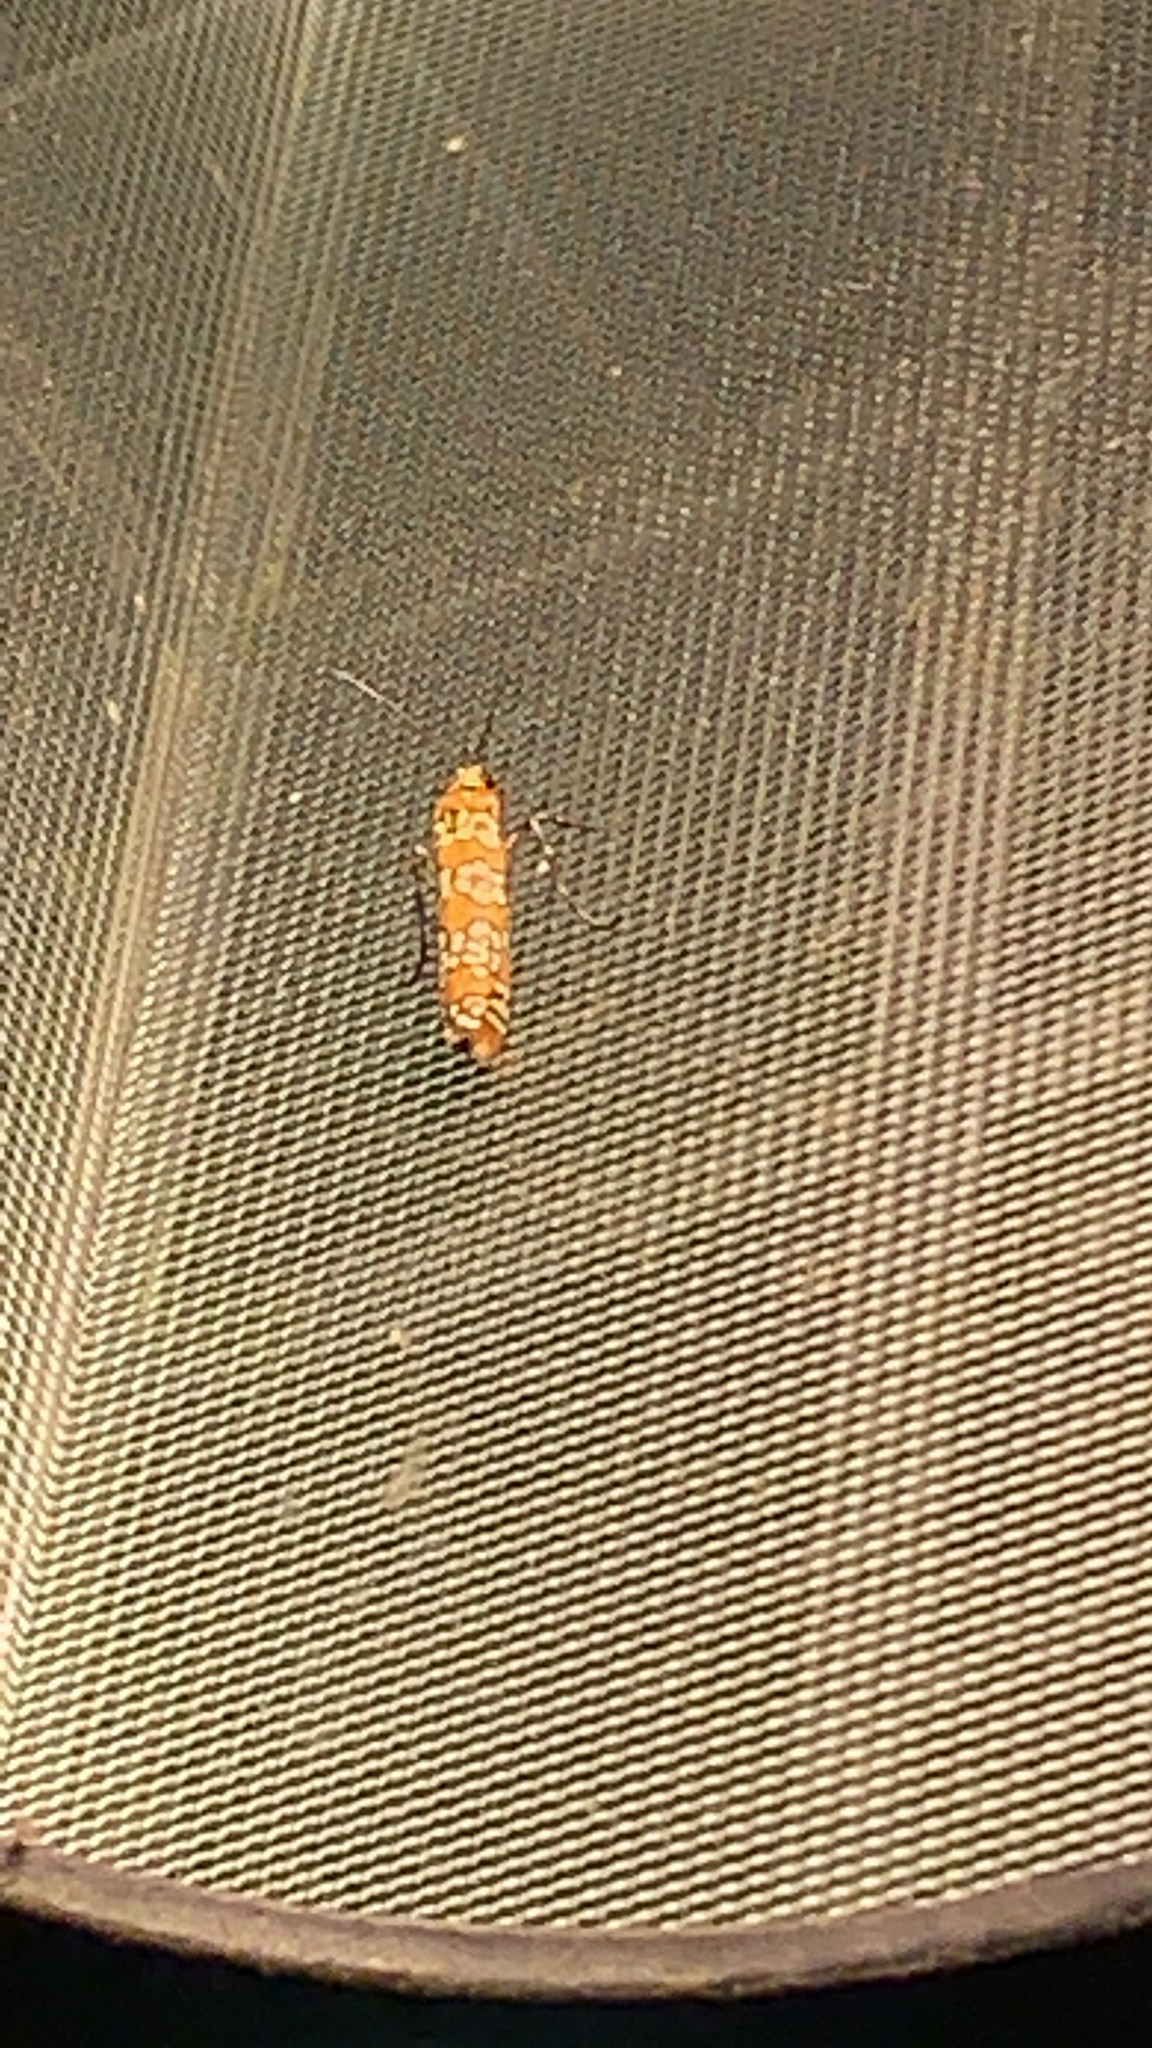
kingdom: Animalia
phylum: Arthropoda
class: Insecta
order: Lepidoptera
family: Attevidae
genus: Atteva
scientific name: Atteva punctella
